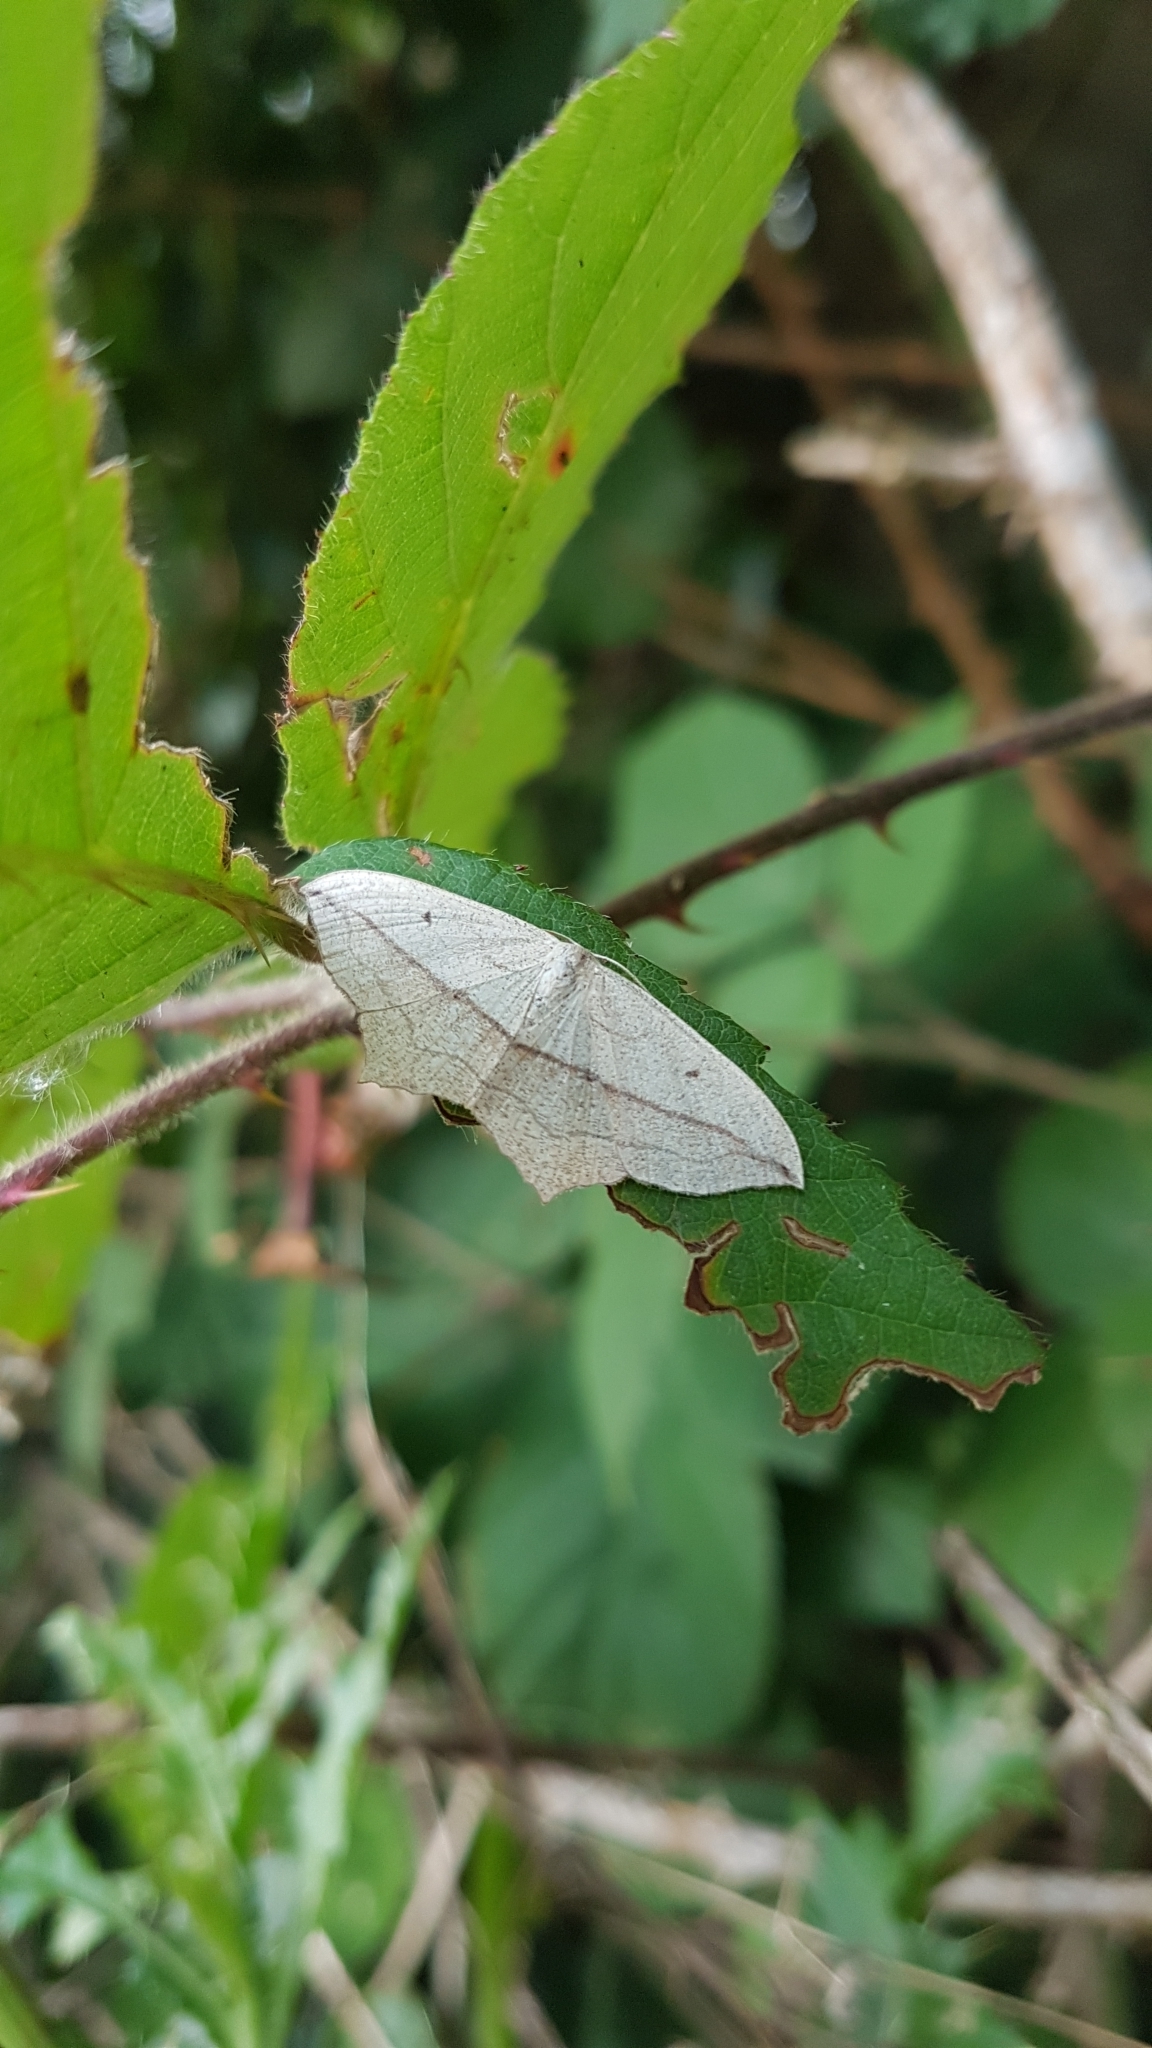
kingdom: Animalia
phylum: Arthropoda
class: Insecta
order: Lepidoptera
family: Geometridae
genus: Timandra
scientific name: Timandra comae
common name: Blood-vein
